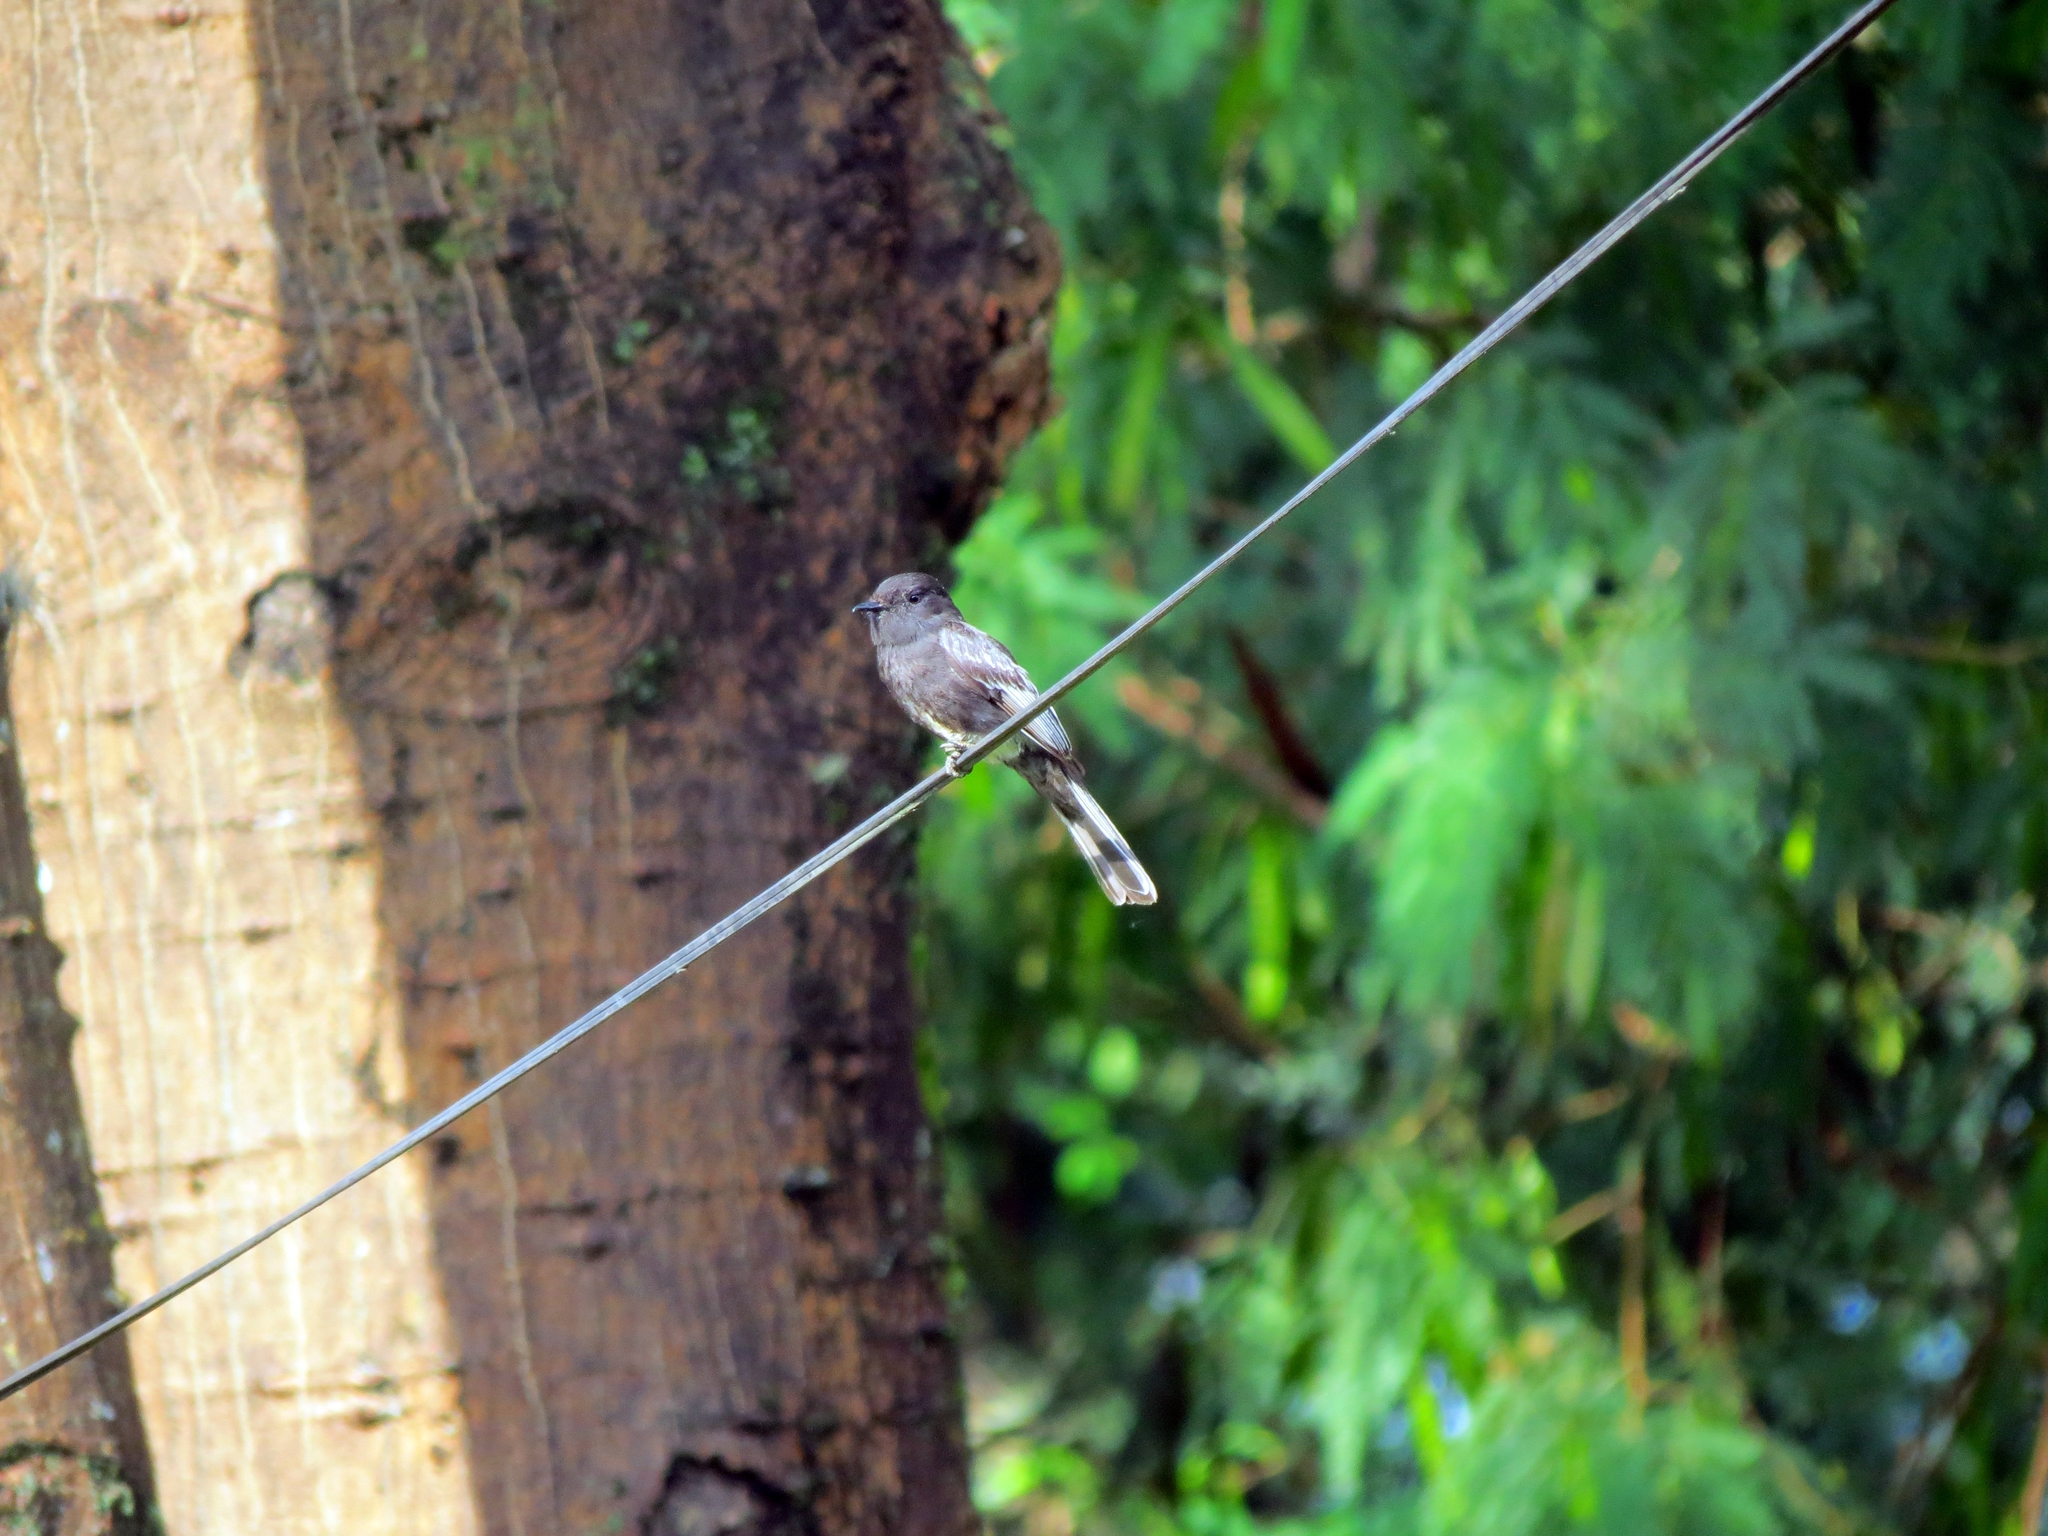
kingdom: Animalia
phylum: Chordata
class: Aves
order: Passeriformes
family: Tyrannidae
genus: Sayornis
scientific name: Sayornis nigricans
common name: Black phoebe
